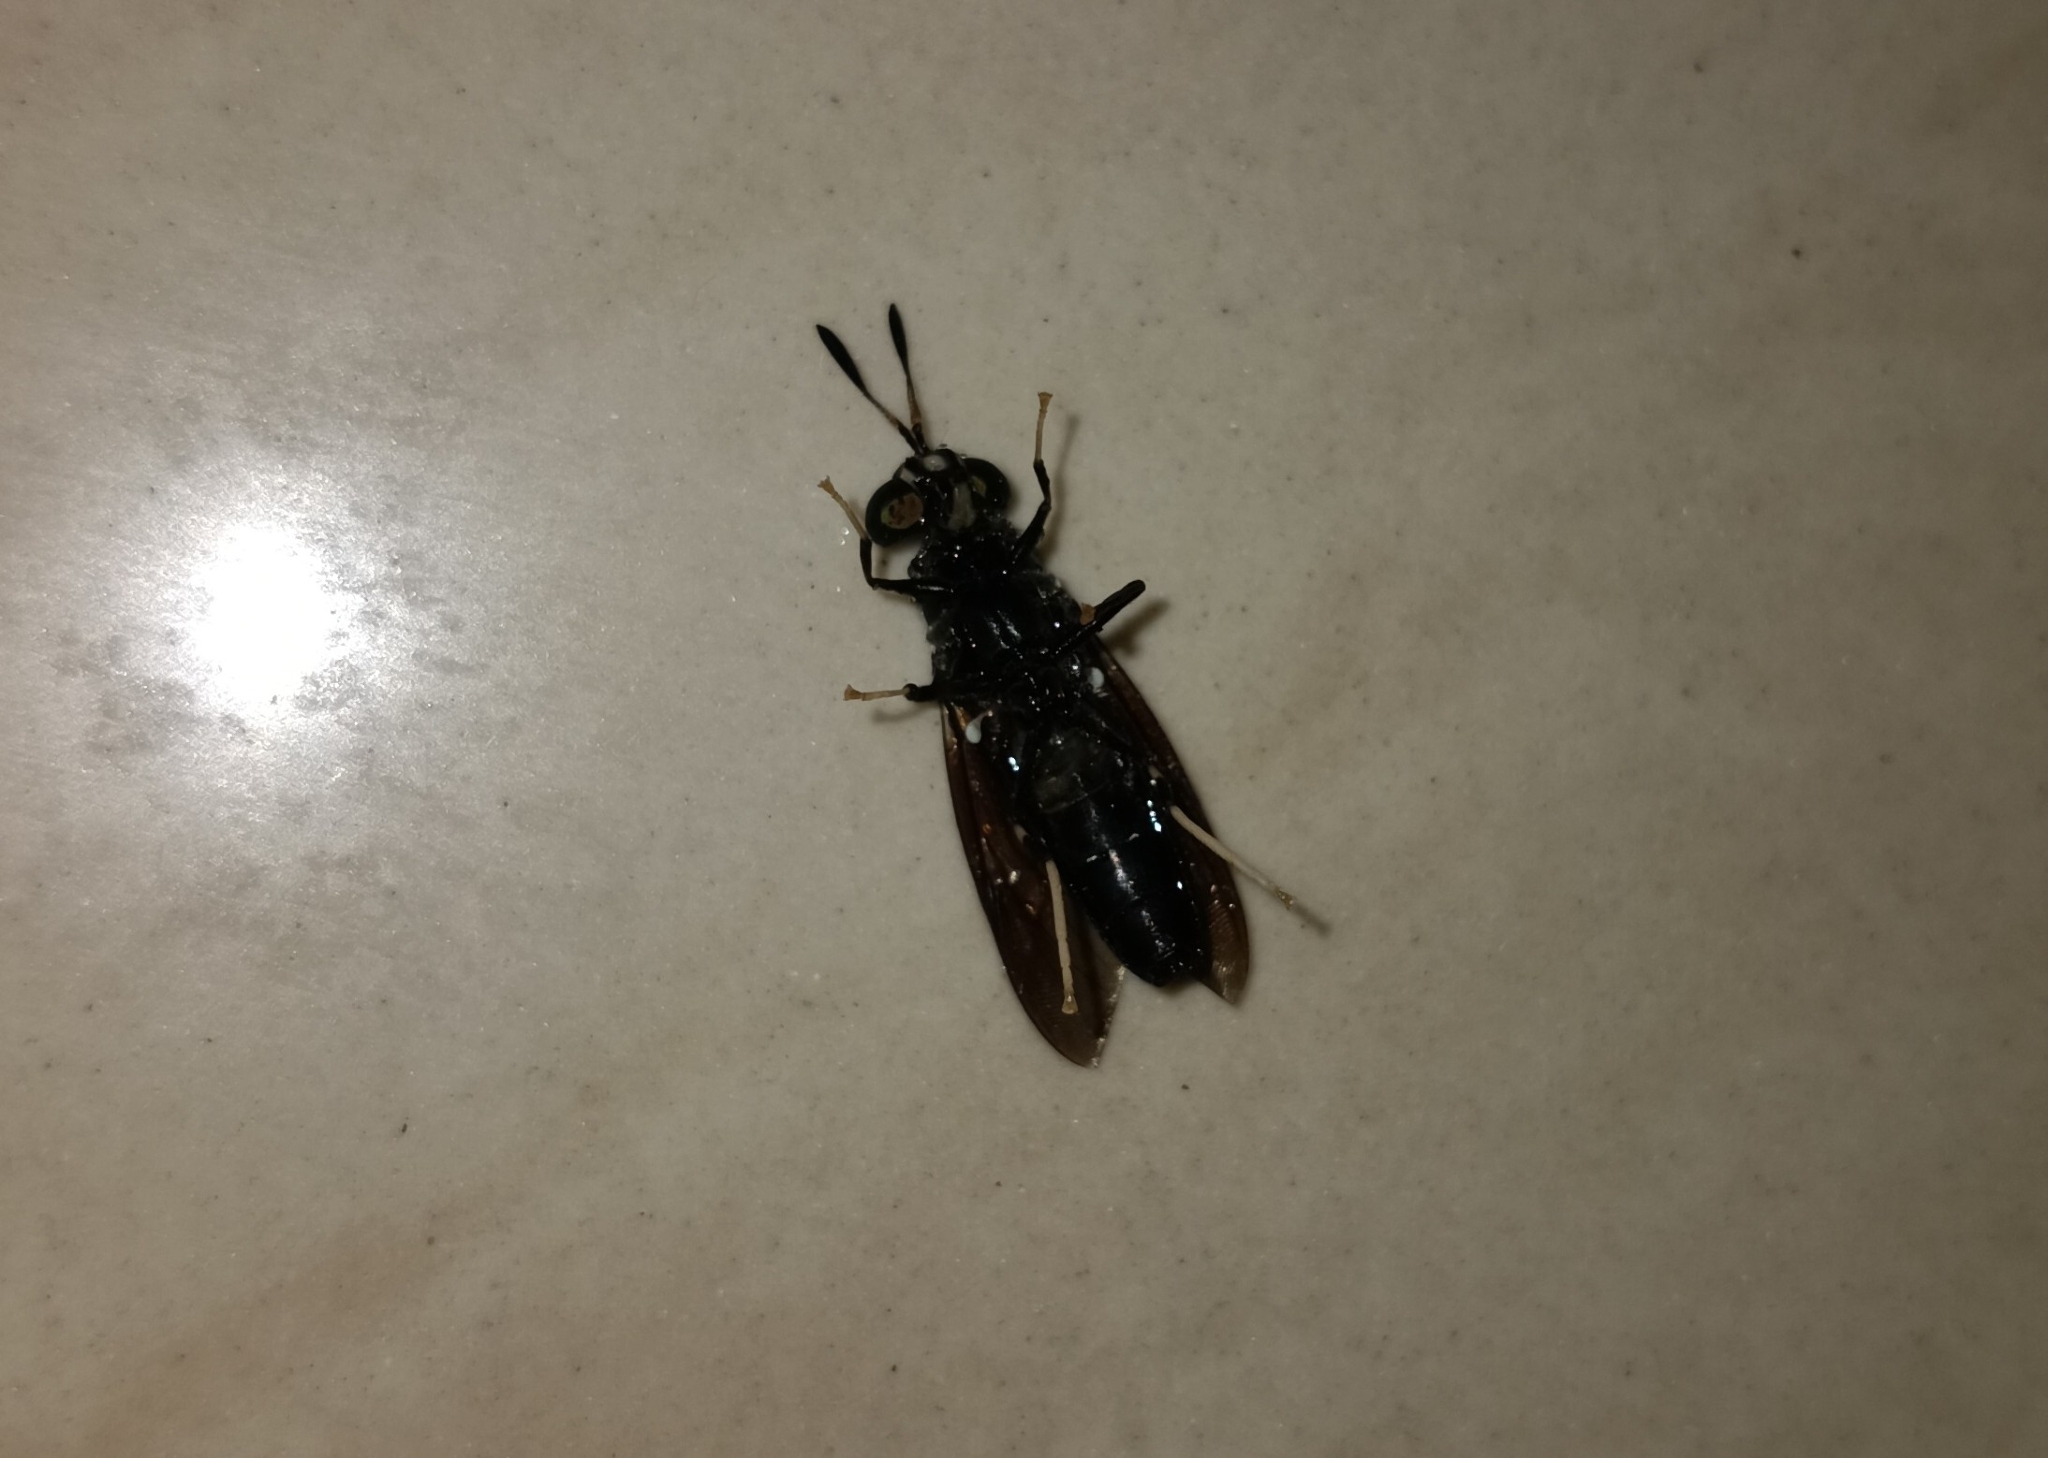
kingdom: Animalia
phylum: Arthropoda
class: Insecta
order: Diptera
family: Stratiomyidae
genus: Hermetia
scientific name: Hermetia illucens
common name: Black soldier fly
